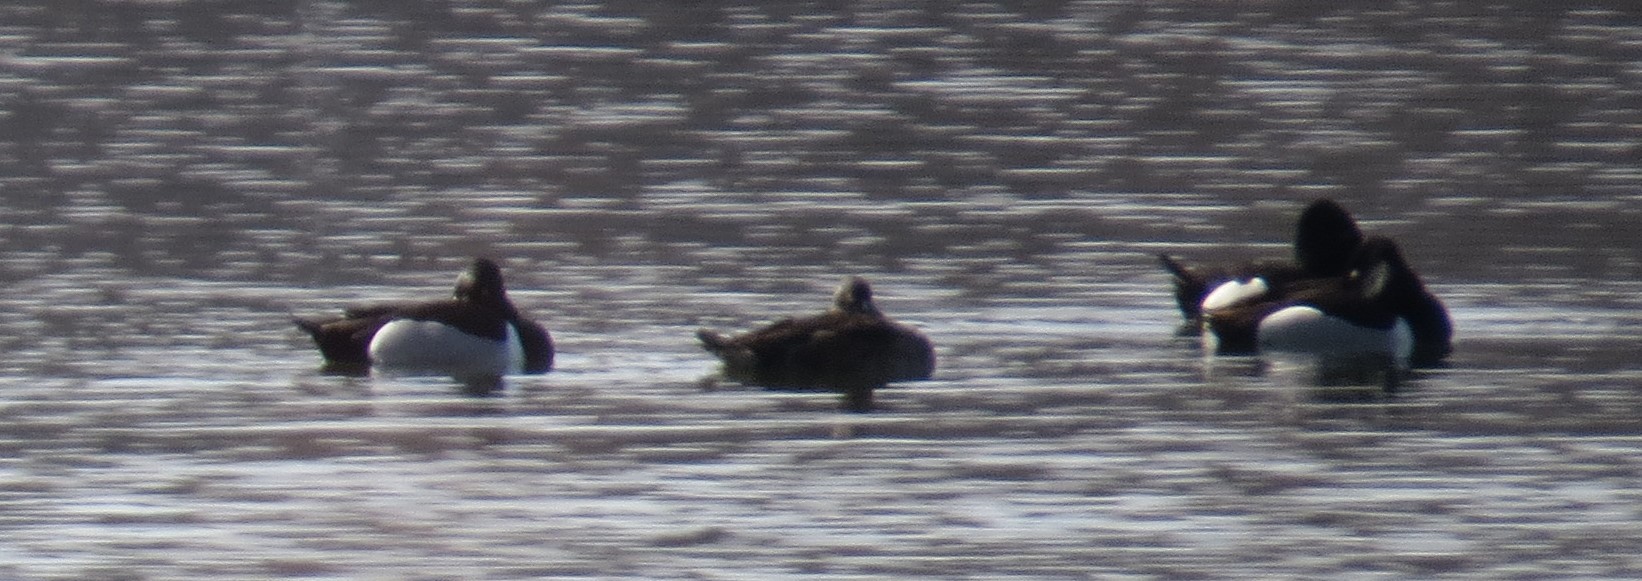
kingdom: Animalia
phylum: Chordata
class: Aves
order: Anseriformes
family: Anatidae
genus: Aythya
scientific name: Aythya collaris
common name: Ring-necked duck
